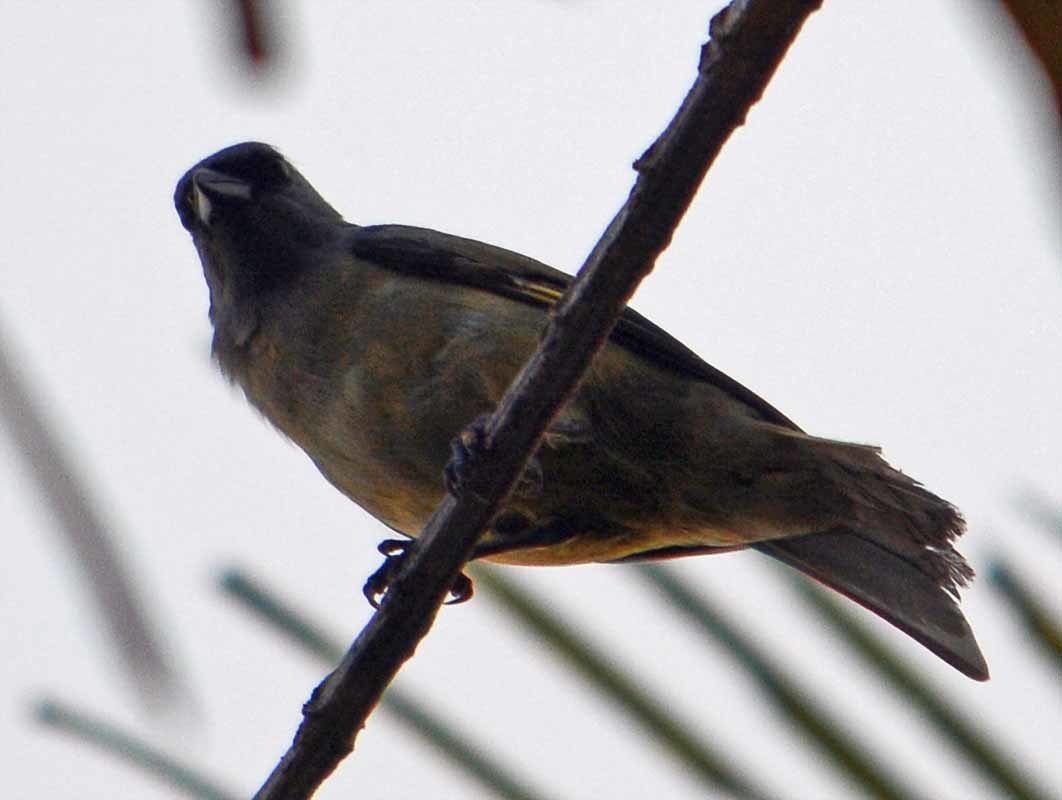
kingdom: Animalia
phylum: Chordata
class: Aves
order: Passeriformes
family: Thraupidae
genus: Thraupis
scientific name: Thraupis abbas
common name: Yellow-winged tanager
